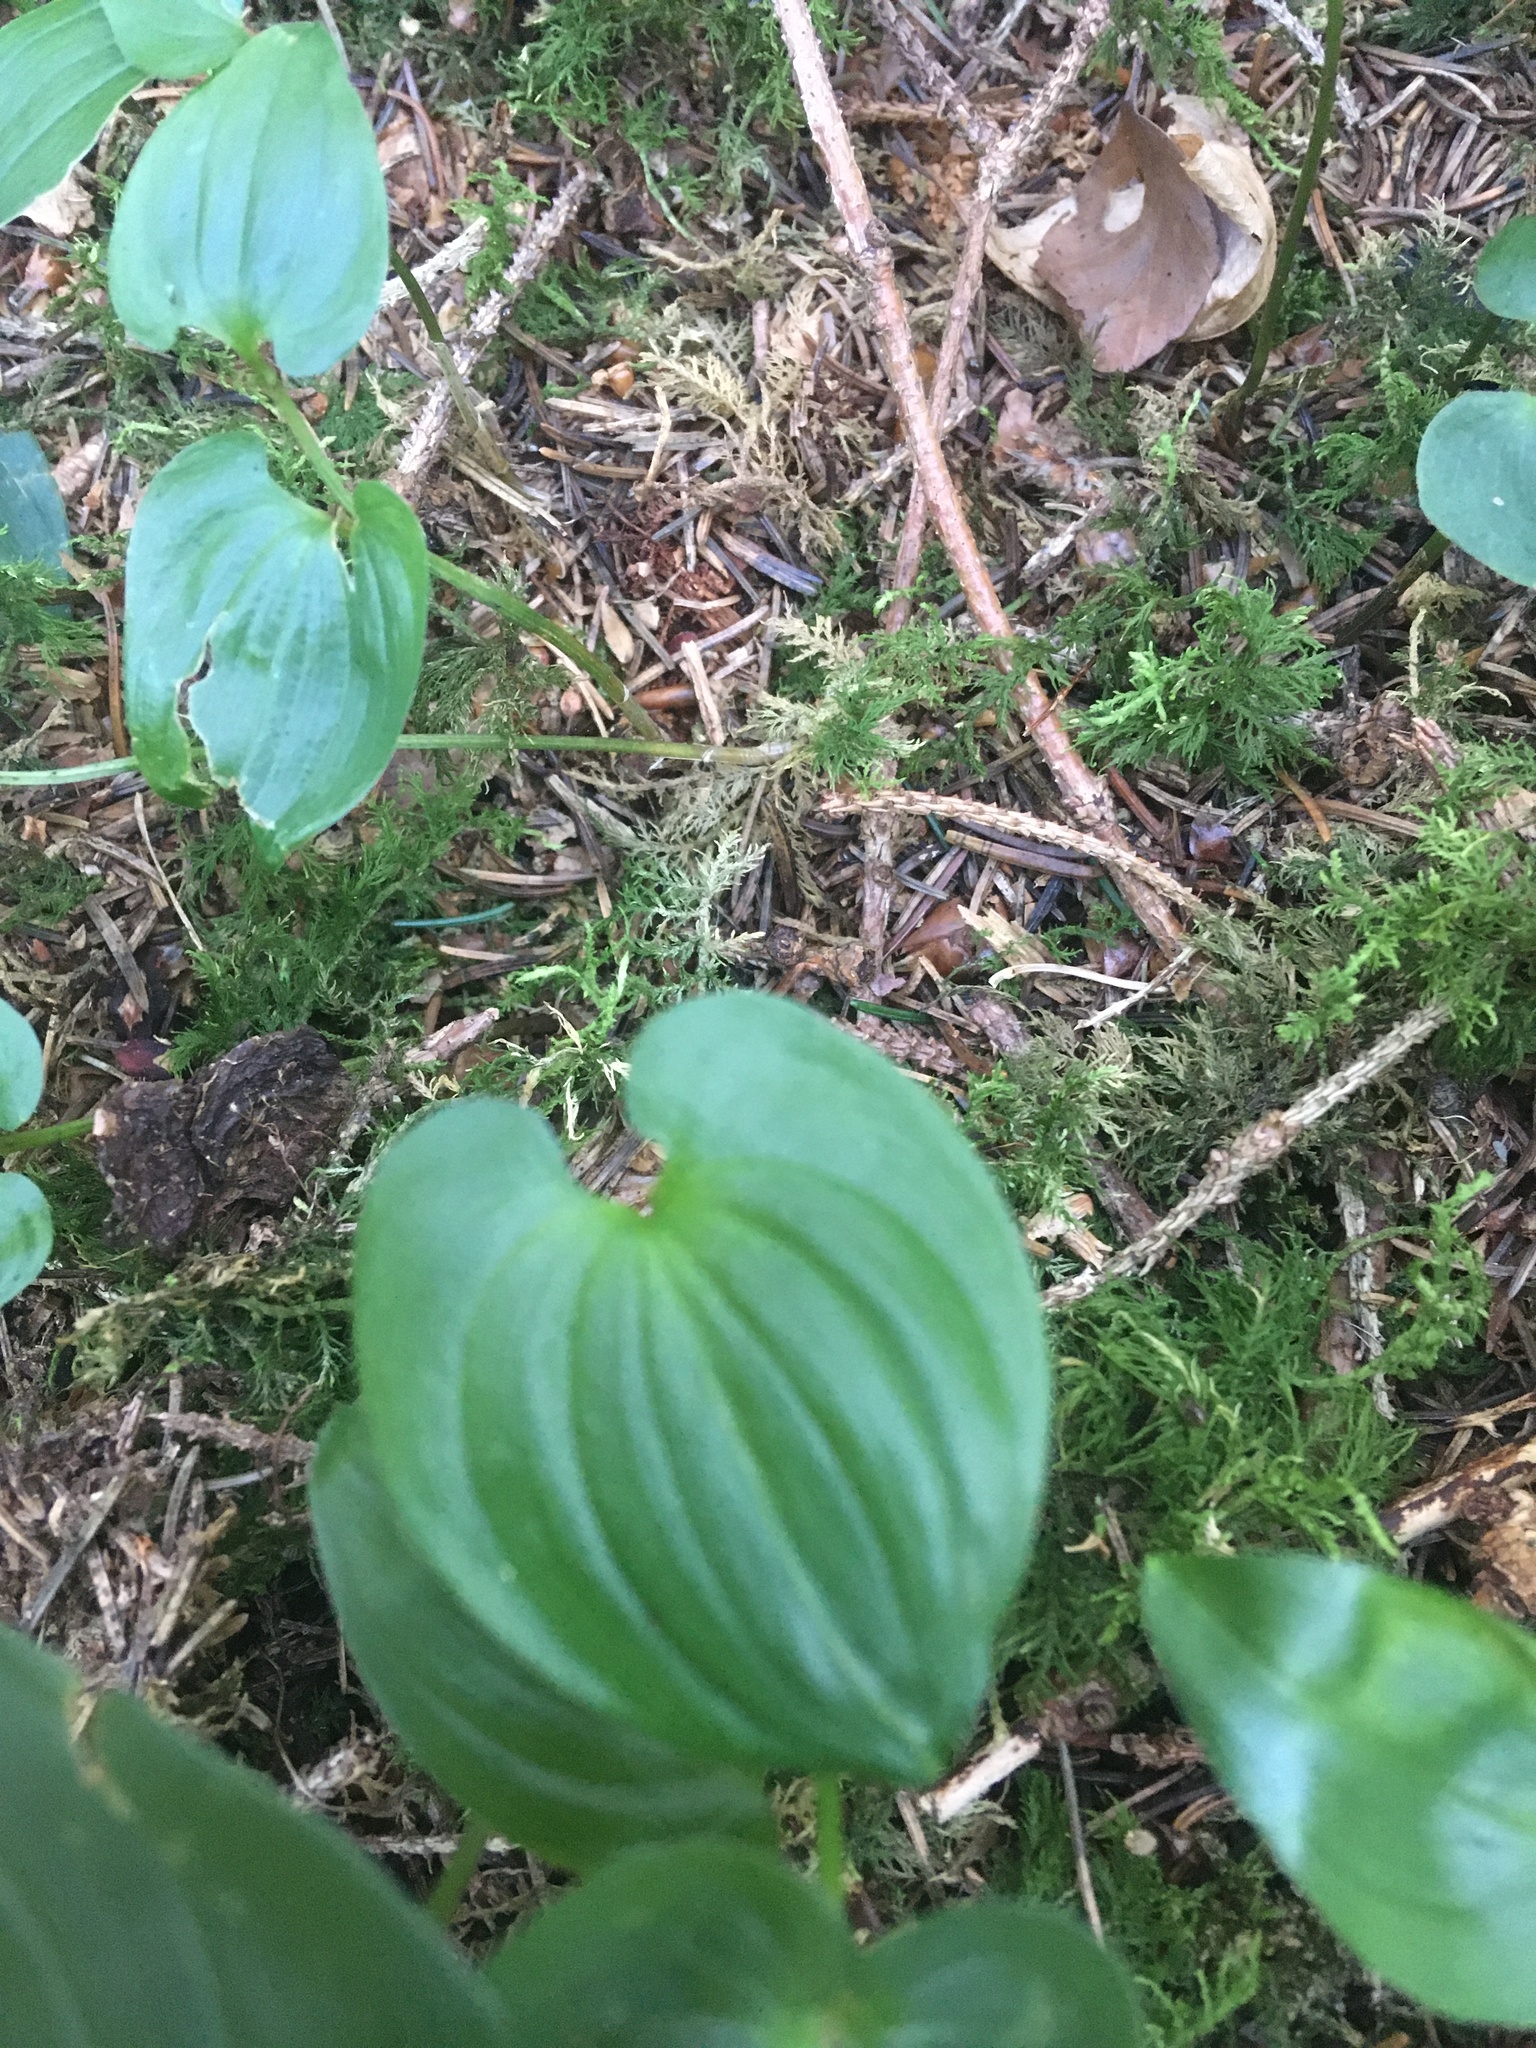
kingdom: Plantae
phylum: Tracheophyta
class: Liliopsida
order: Asparagales
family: Asparagaceae
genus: Maianthemum
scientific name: Maianthemum bifolium
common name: May lily
